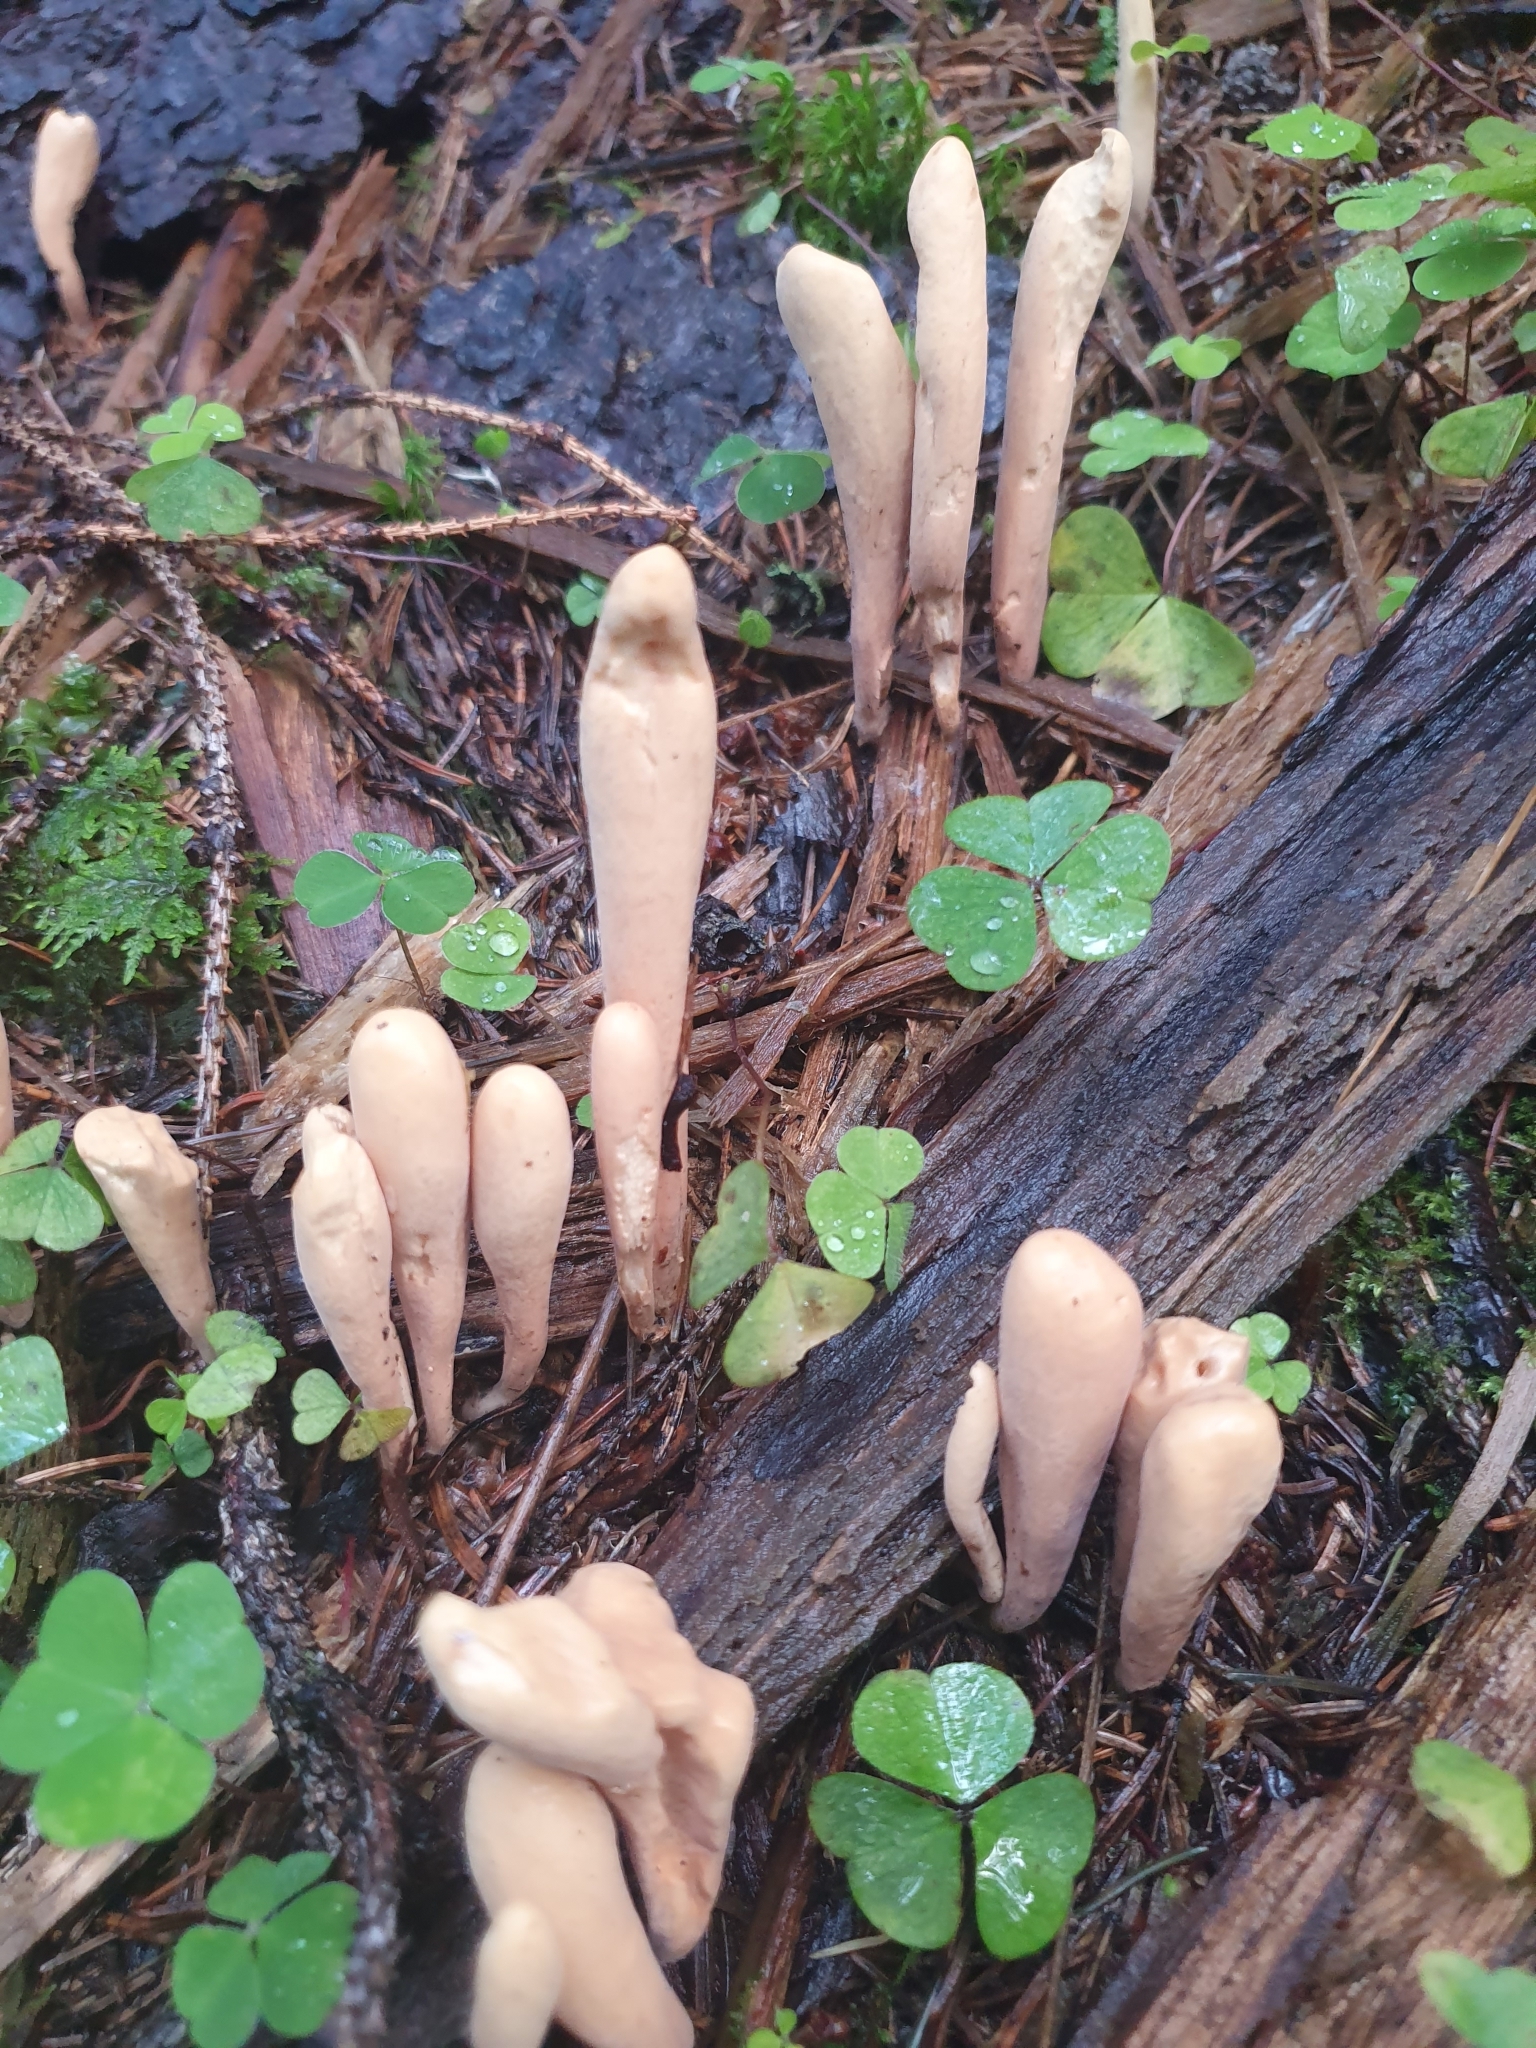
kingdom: Fungi
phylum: Basidiomycota
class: Agaricomycetes
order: Gomphales
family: Clavariadelphaceae
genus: Clavariadelphus
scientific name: Clavariadelphus ligula
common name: Ochre club
